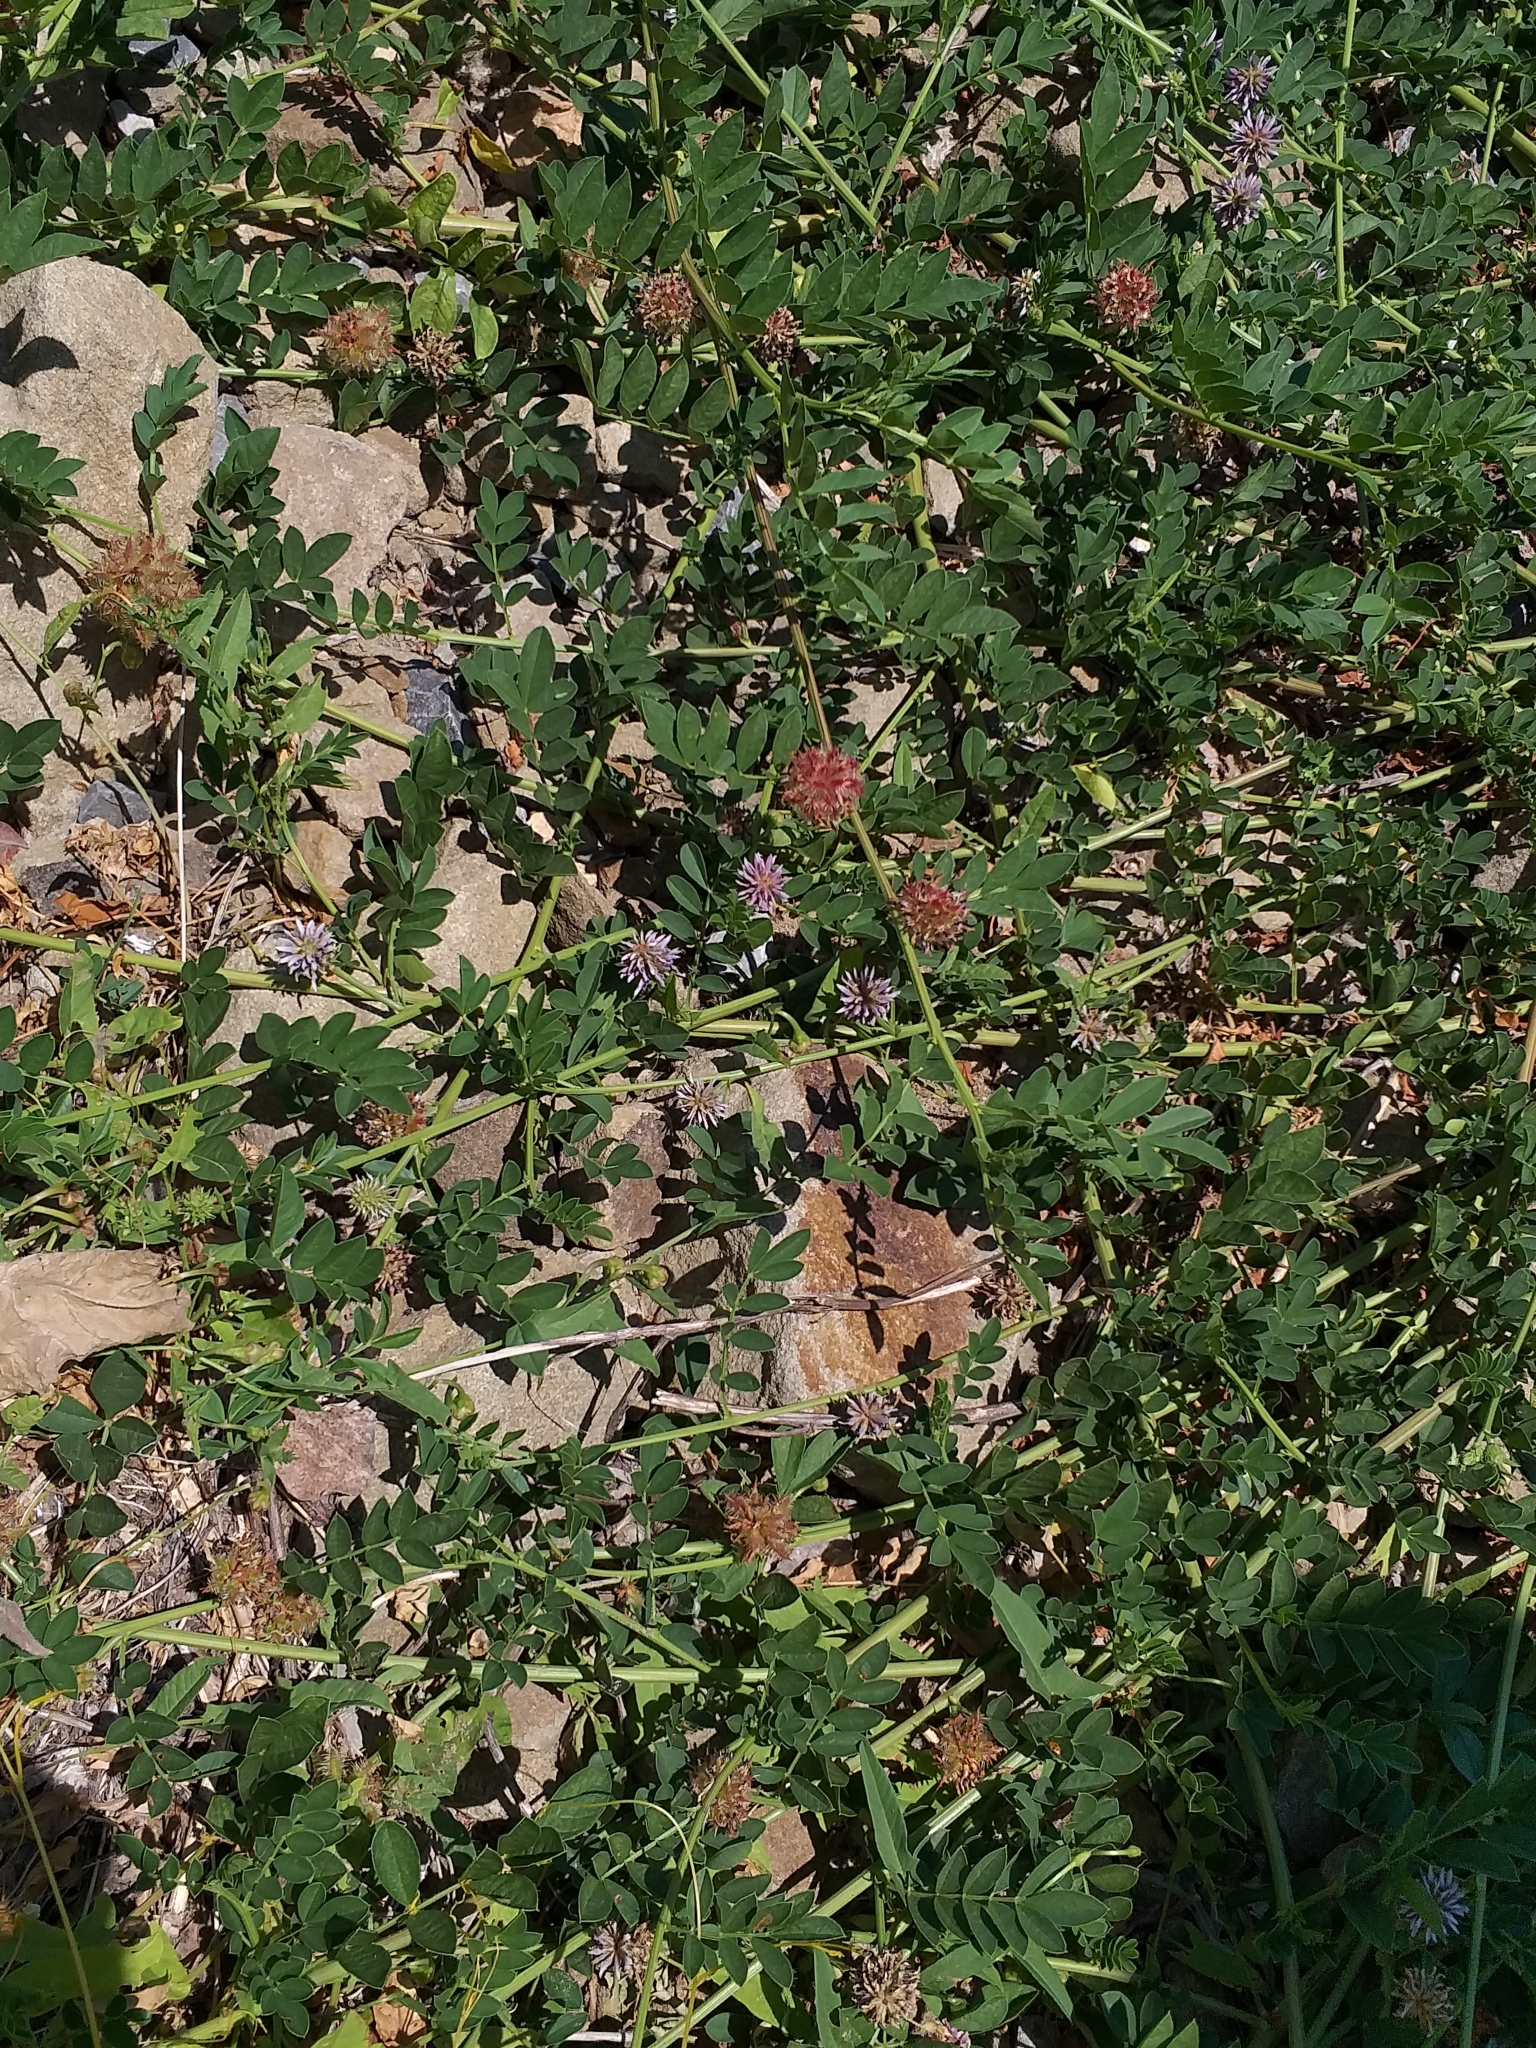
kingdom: Plantae
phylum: Tracheophyta
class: Magnoliopsida
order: Fabales
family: Fabaceae
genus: Glycyrrhiza
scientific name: Glycyrrhiza echinata
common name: German liquorice
